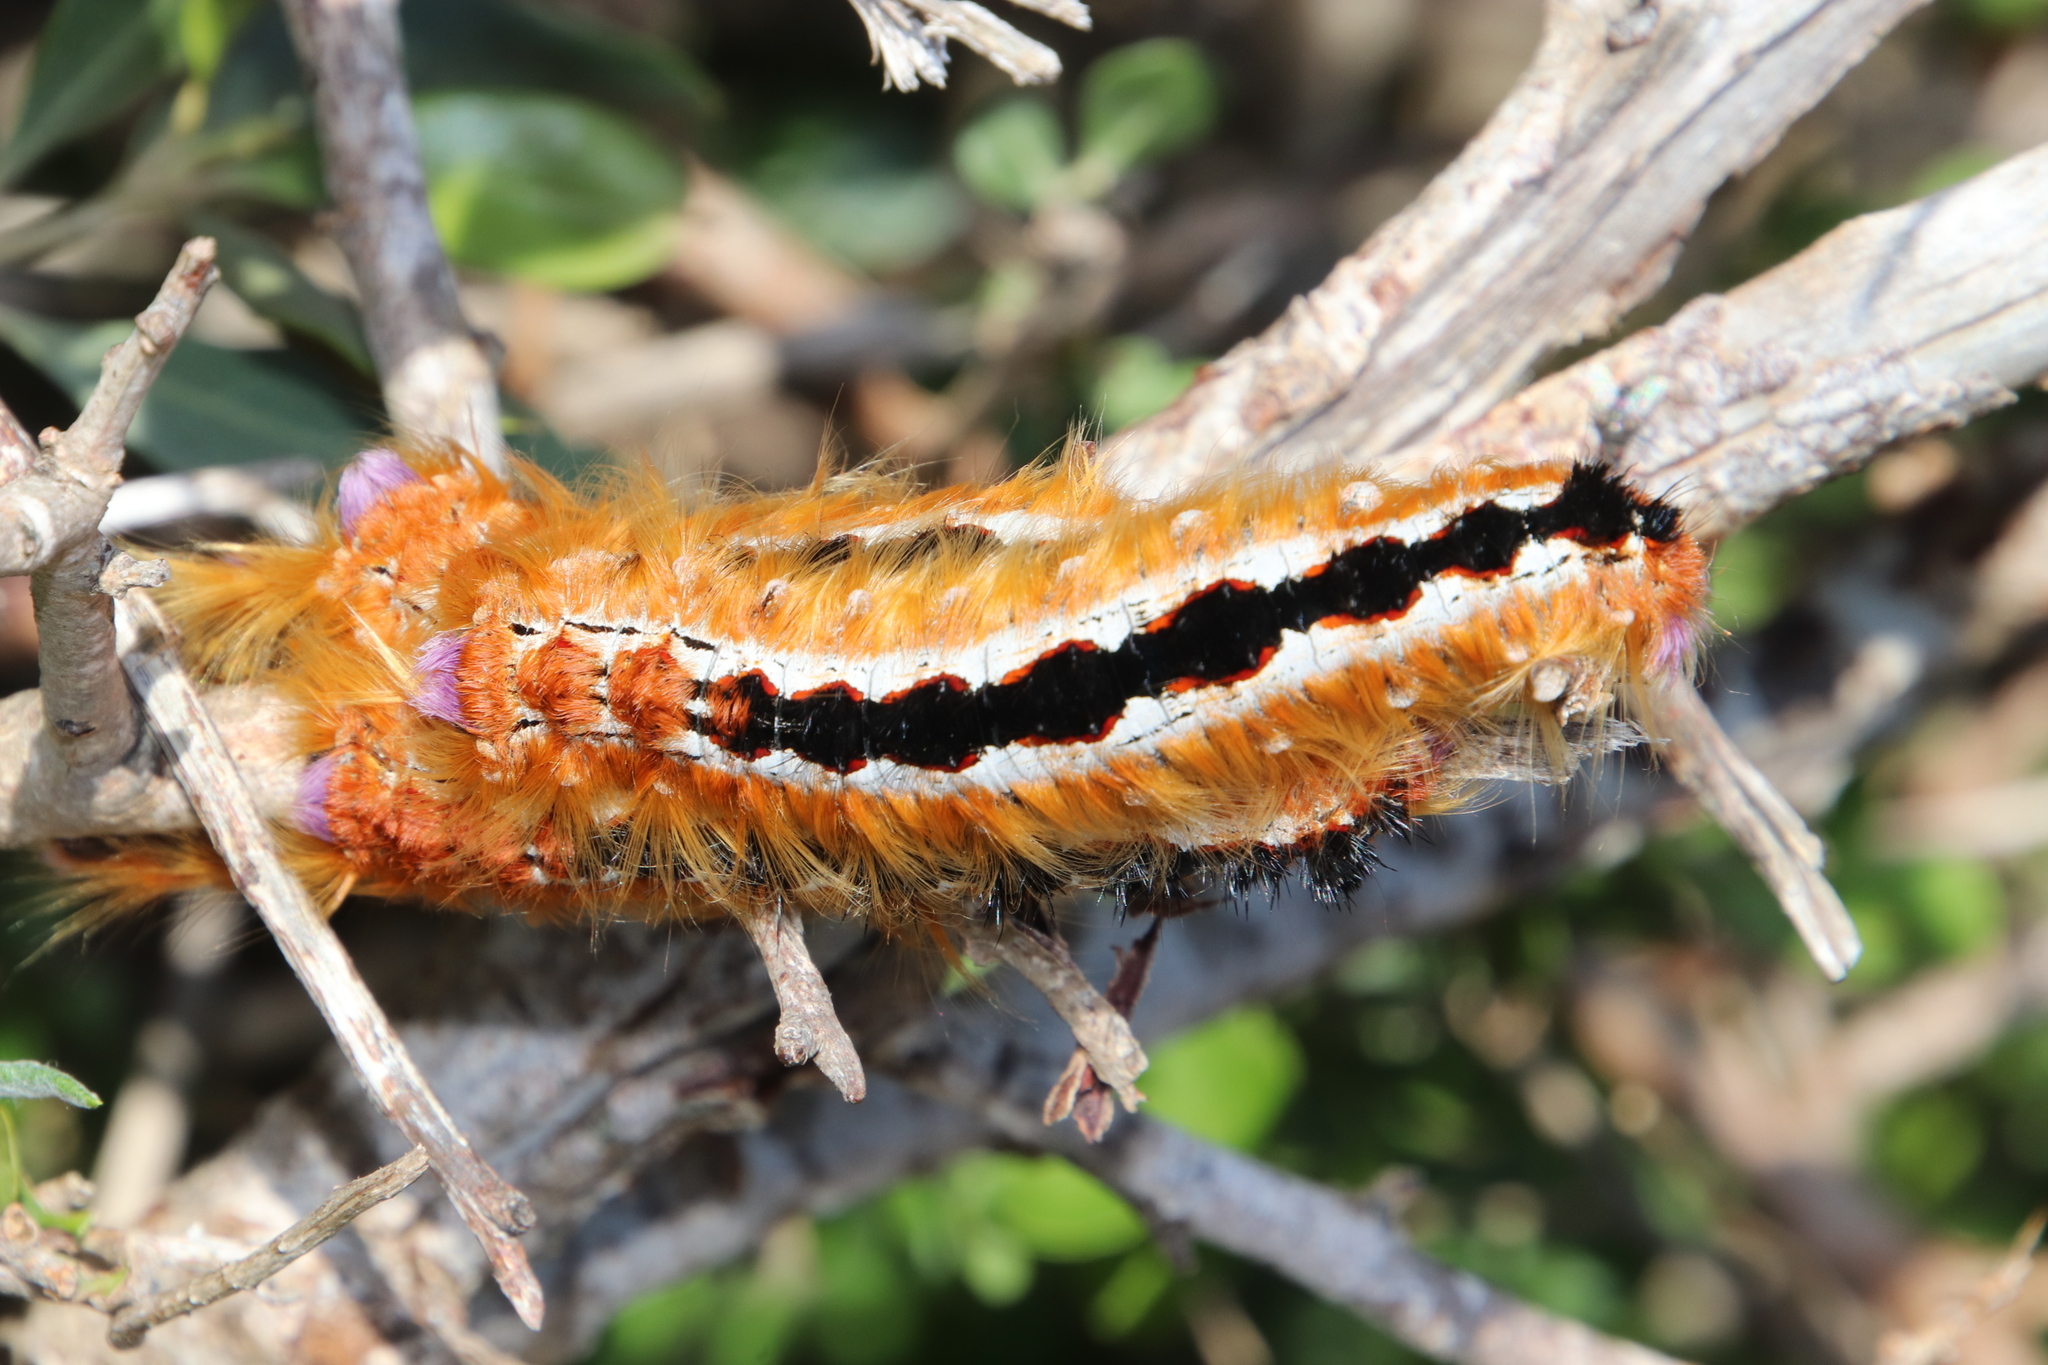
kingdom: Animalia
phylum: Arthropoda
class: Insecta
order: Lepidoptera
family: Lasiocampidae
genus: Eutricha
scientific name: Eutricha capensis
